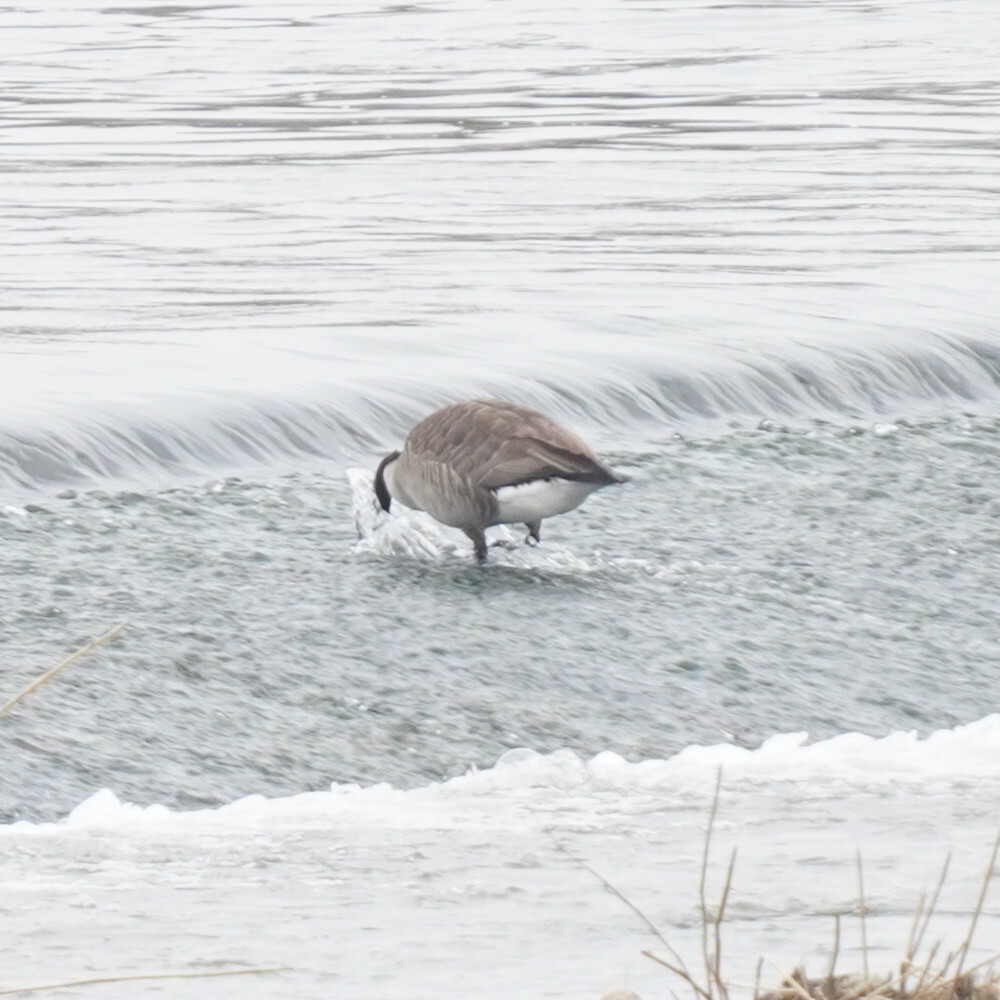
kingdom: Animalia
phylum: Chordata
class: Aves
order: Anseriformes
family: Anatidae
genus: Branta
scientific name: Branta canadensis
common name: Canada goose
